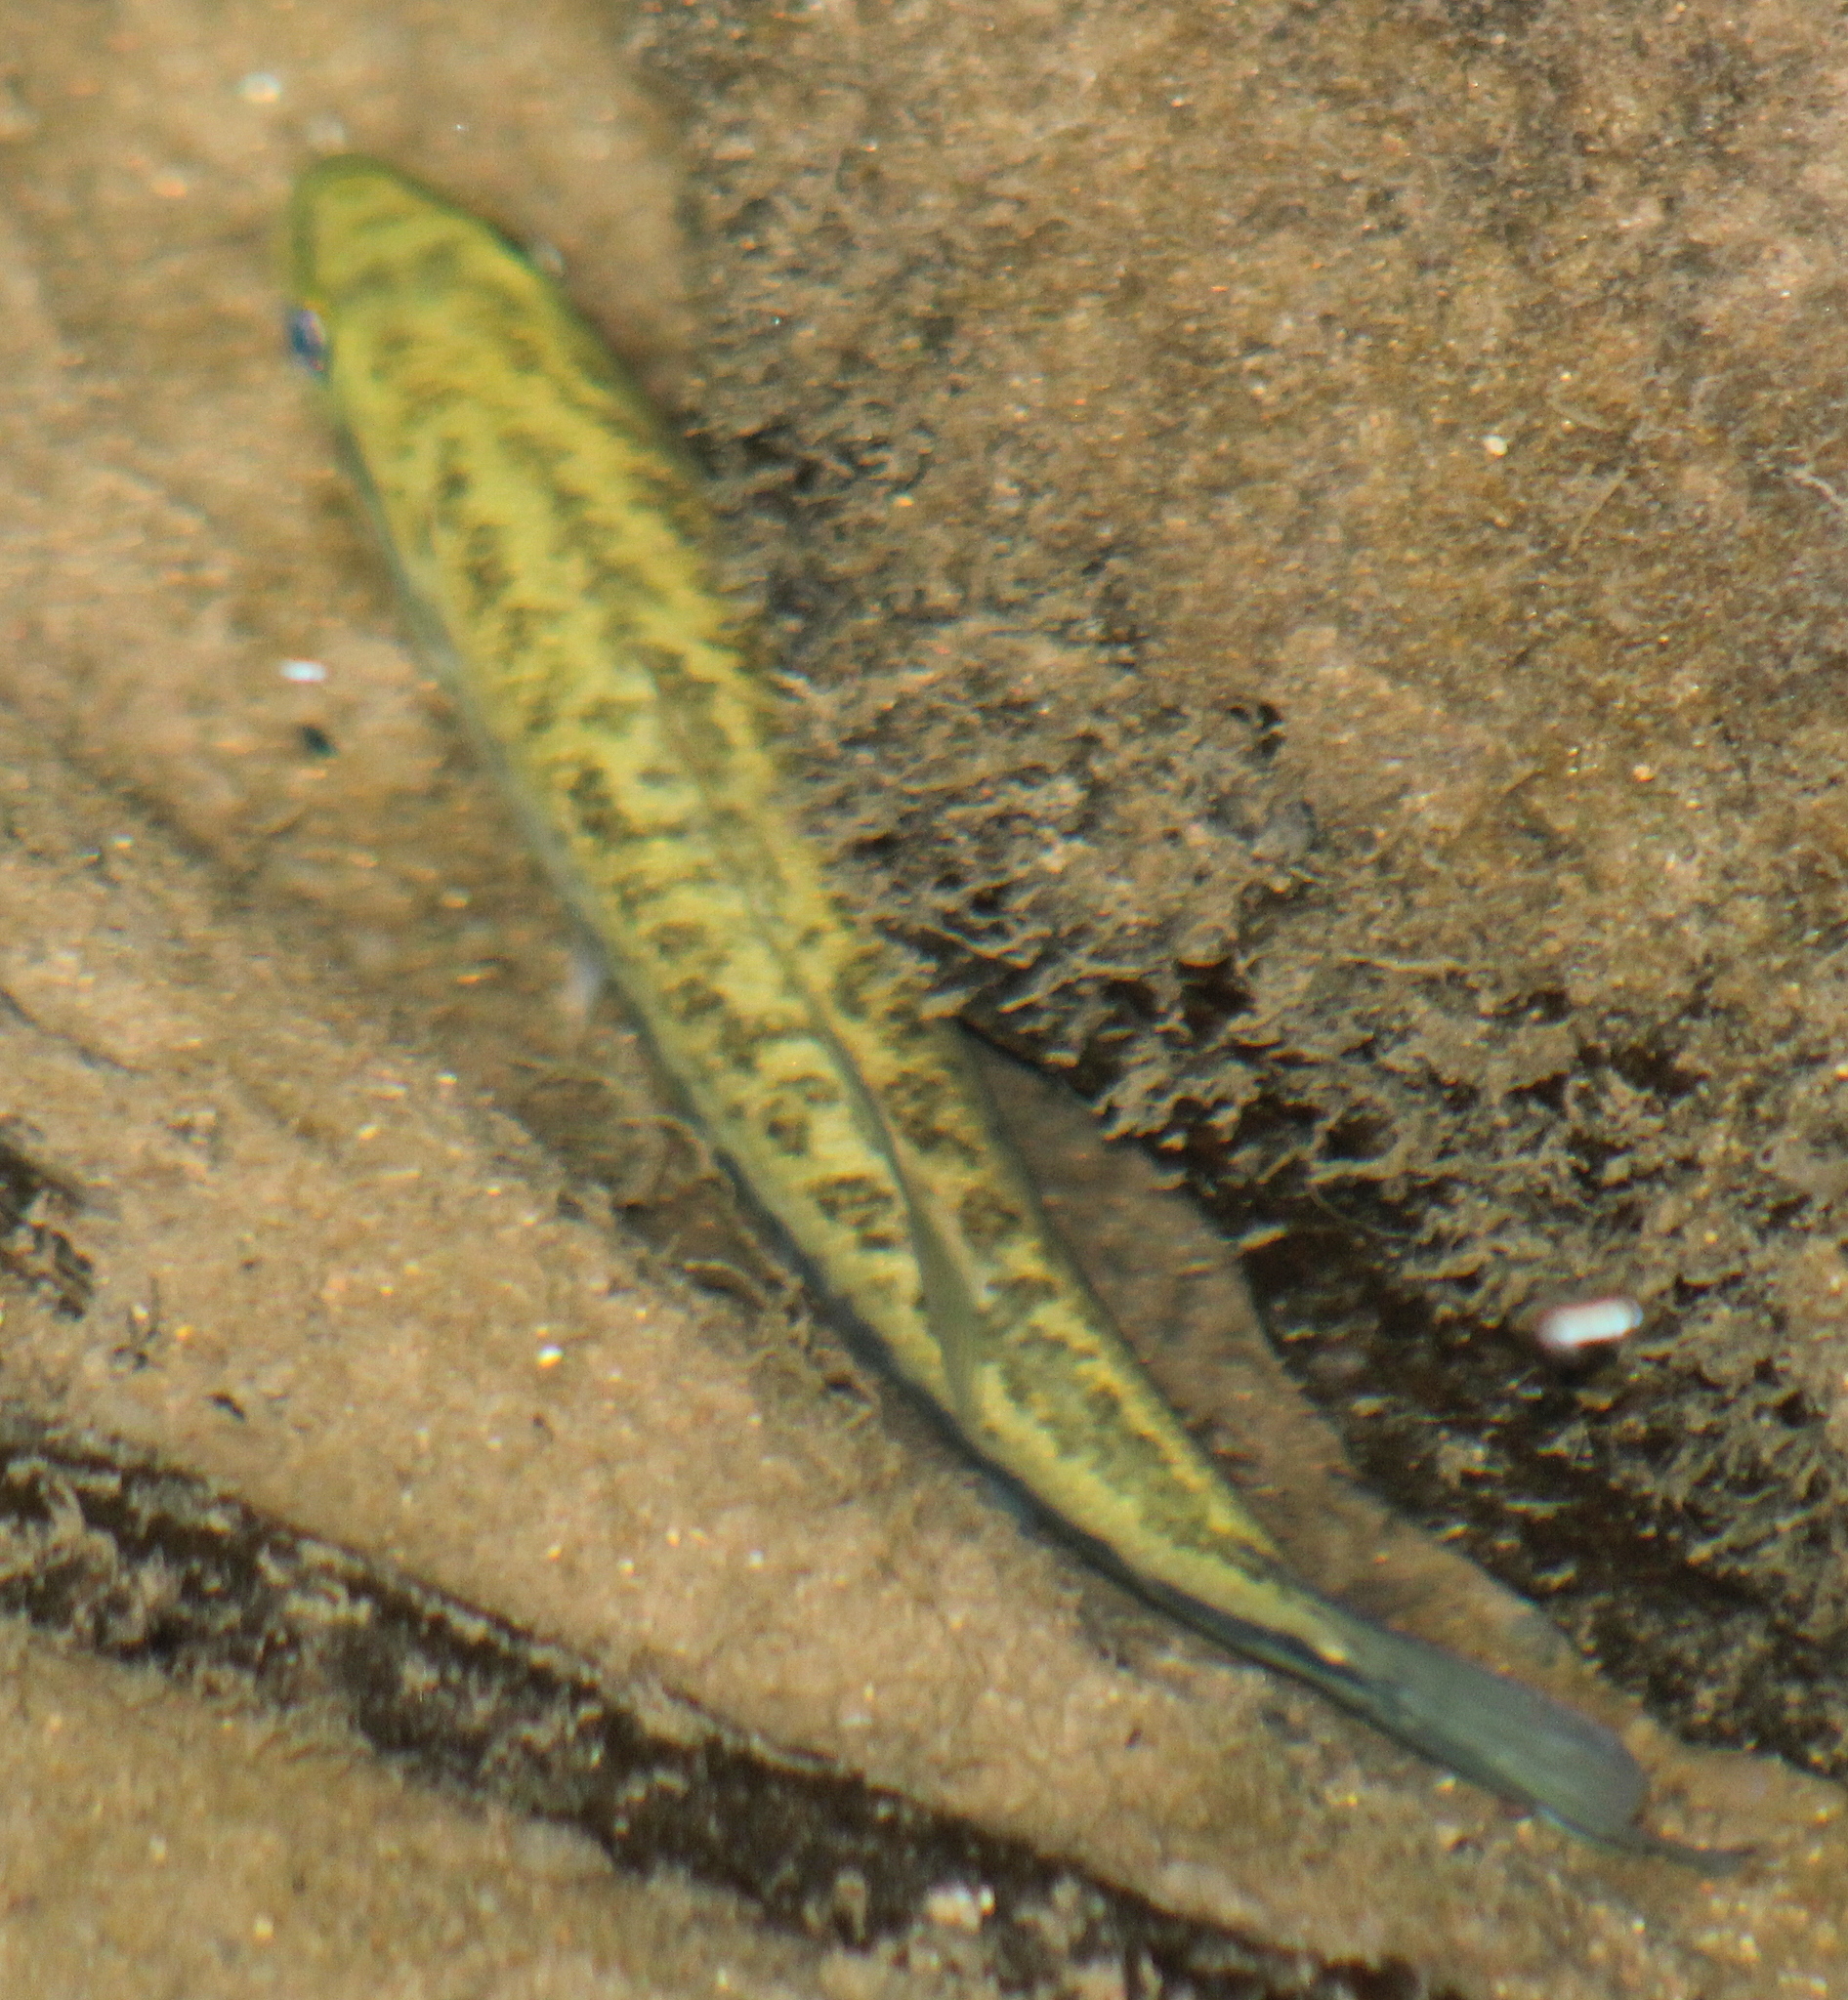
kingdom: Animalia
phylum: Chordata
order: Perciformes
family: Centrarchidae
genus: Micropterus
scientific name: Micropterus
